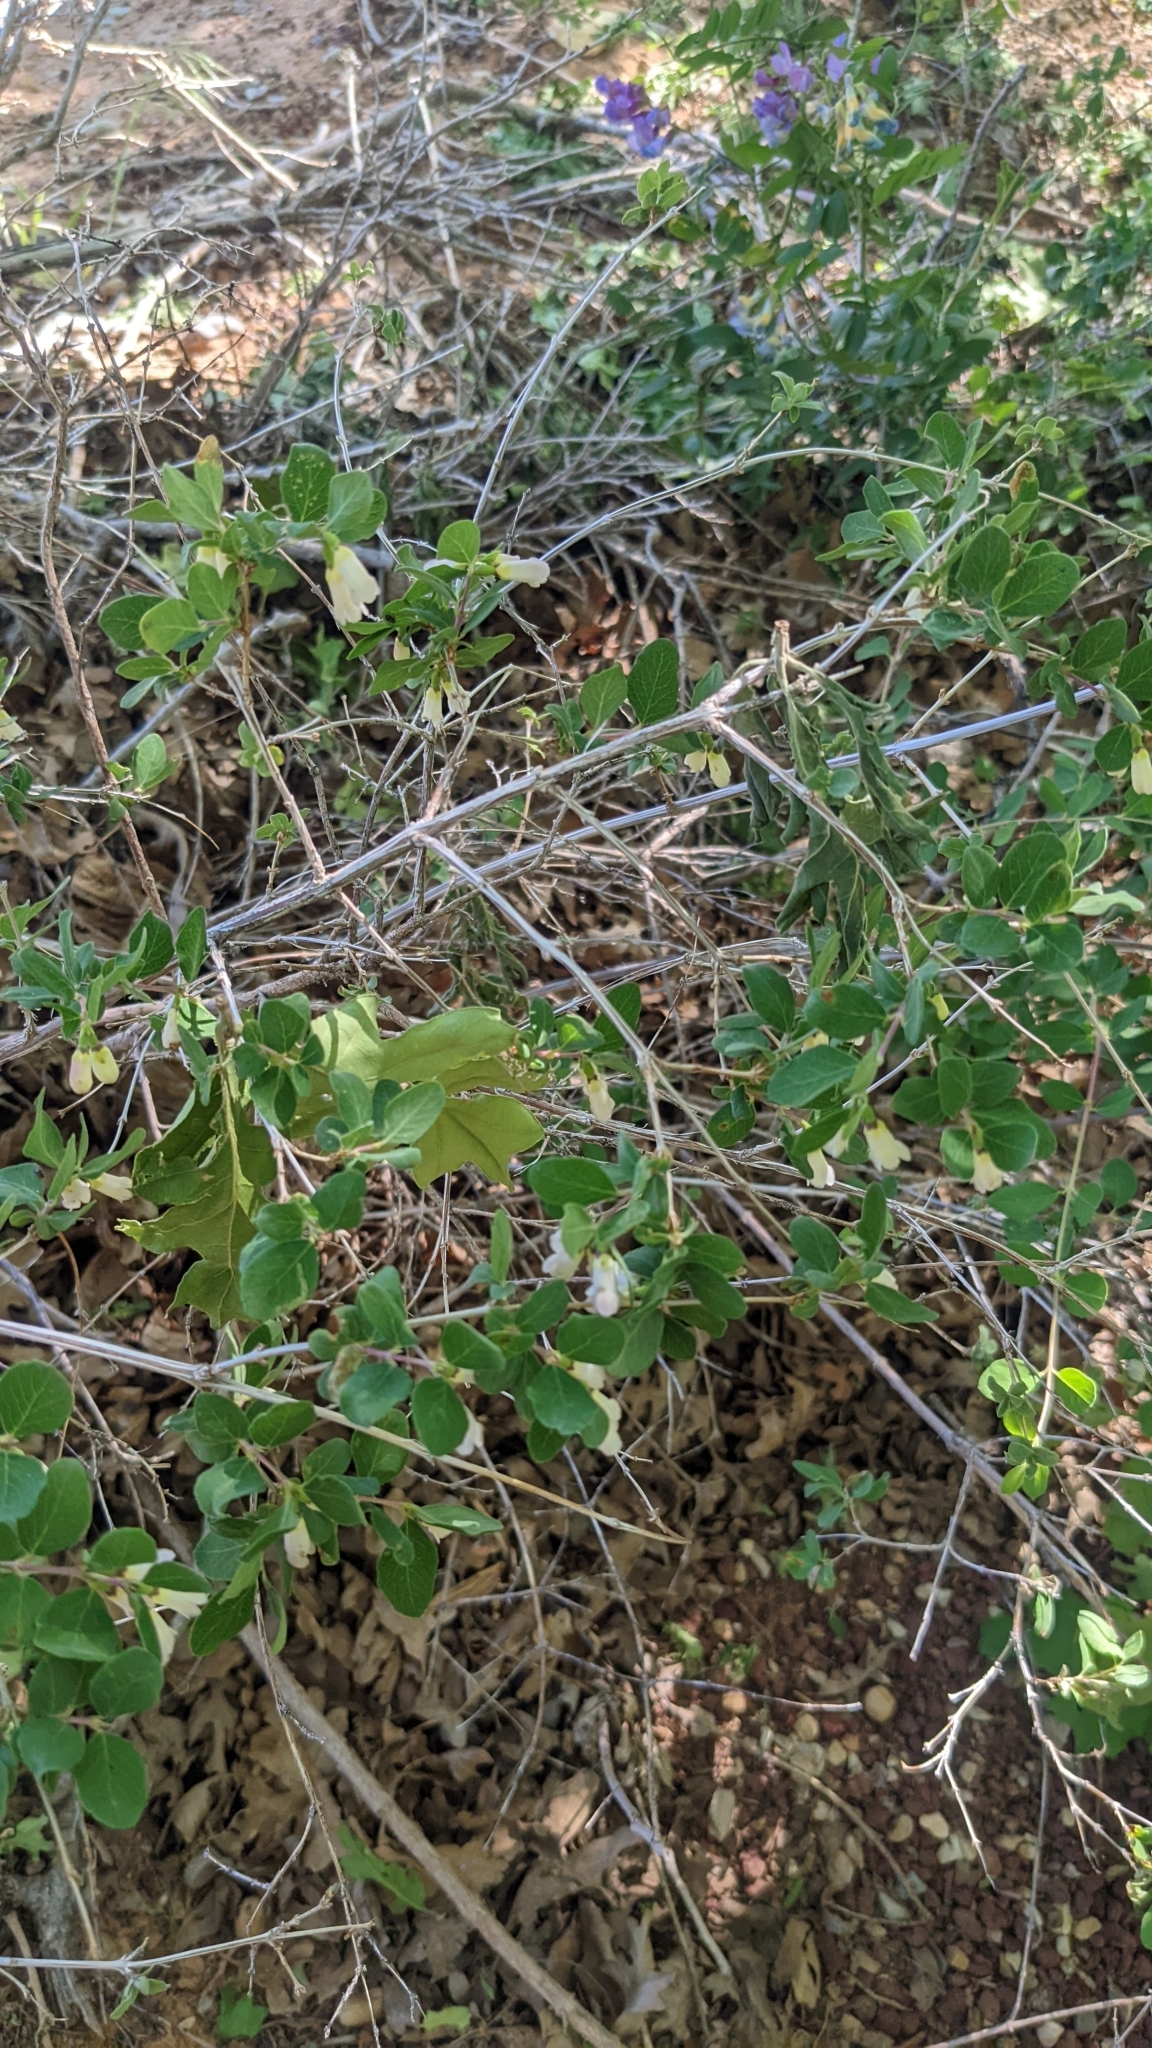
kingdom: Plantae
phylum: Tracheophyta
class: Magnoliopsida
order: Dipsacales
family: Caprifoliaceae
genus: Symphoricarpos
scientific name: Symphoricarpos rotundifolius
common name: Round-leaved snowberry
